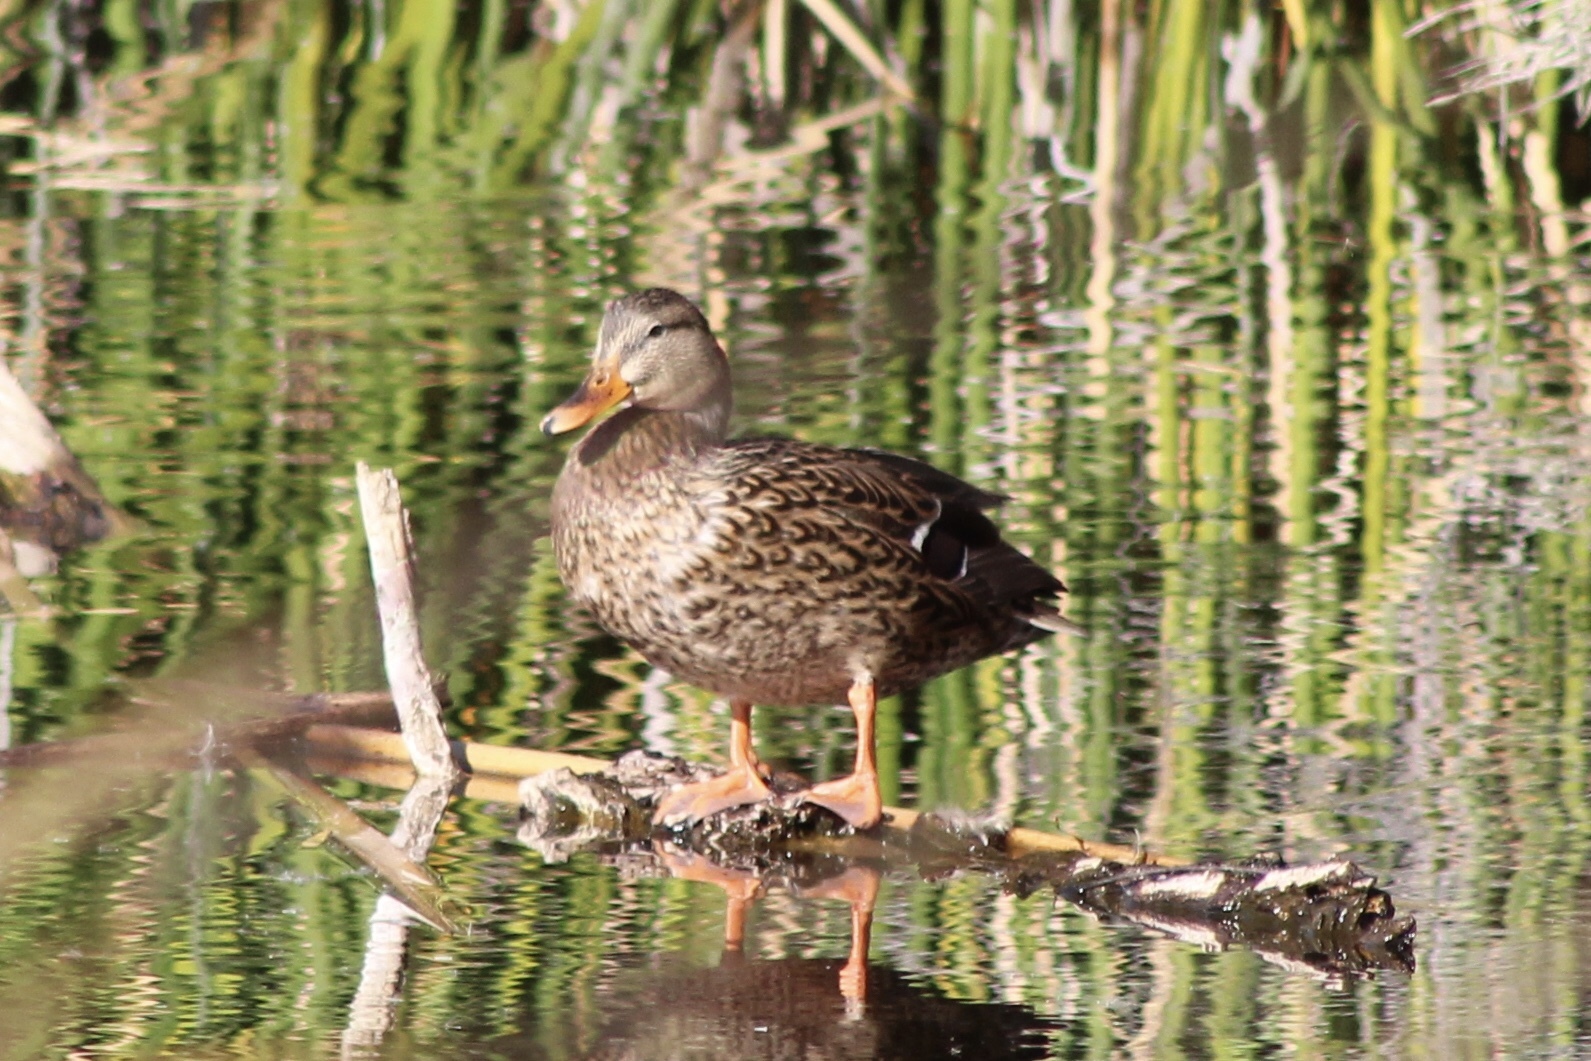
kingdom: Animalia
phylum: Chordata
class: Aves
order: Anseriformes
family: Anatidae
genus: Anas
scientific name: Anas platyrhynchos
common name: Mallard
